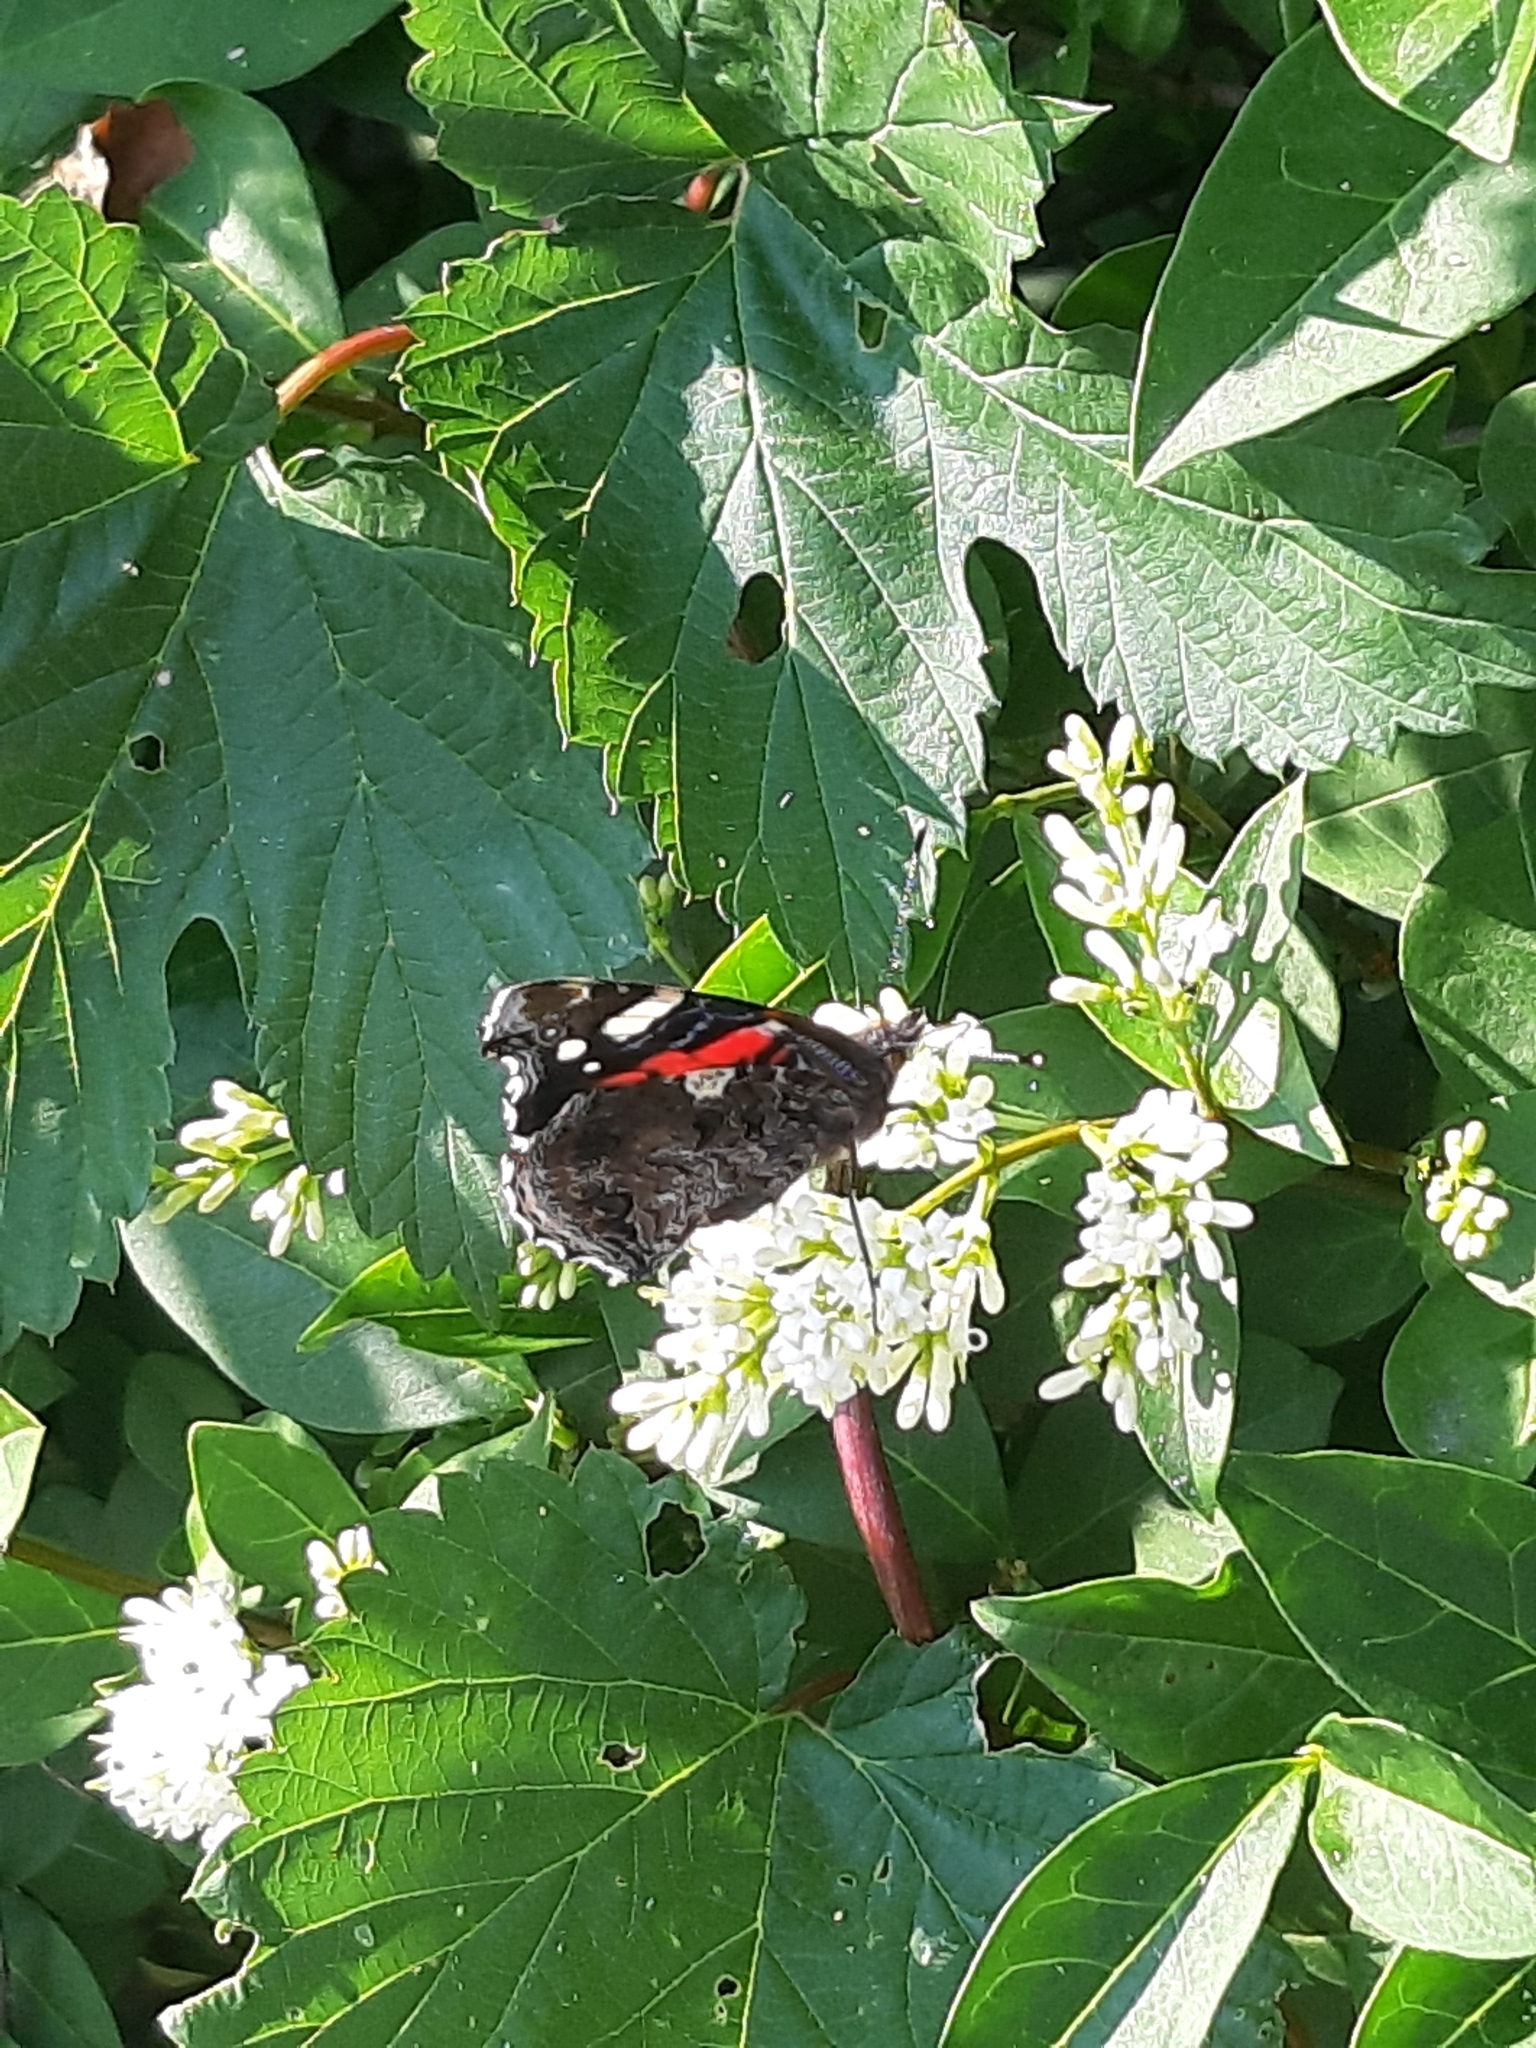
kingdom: Animalia
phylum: Arthropoda
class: Insecta
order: Lepidoptera
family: Nymphalidae
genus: Vanessa
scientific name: Vanessa atalanta
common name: Red admiral
